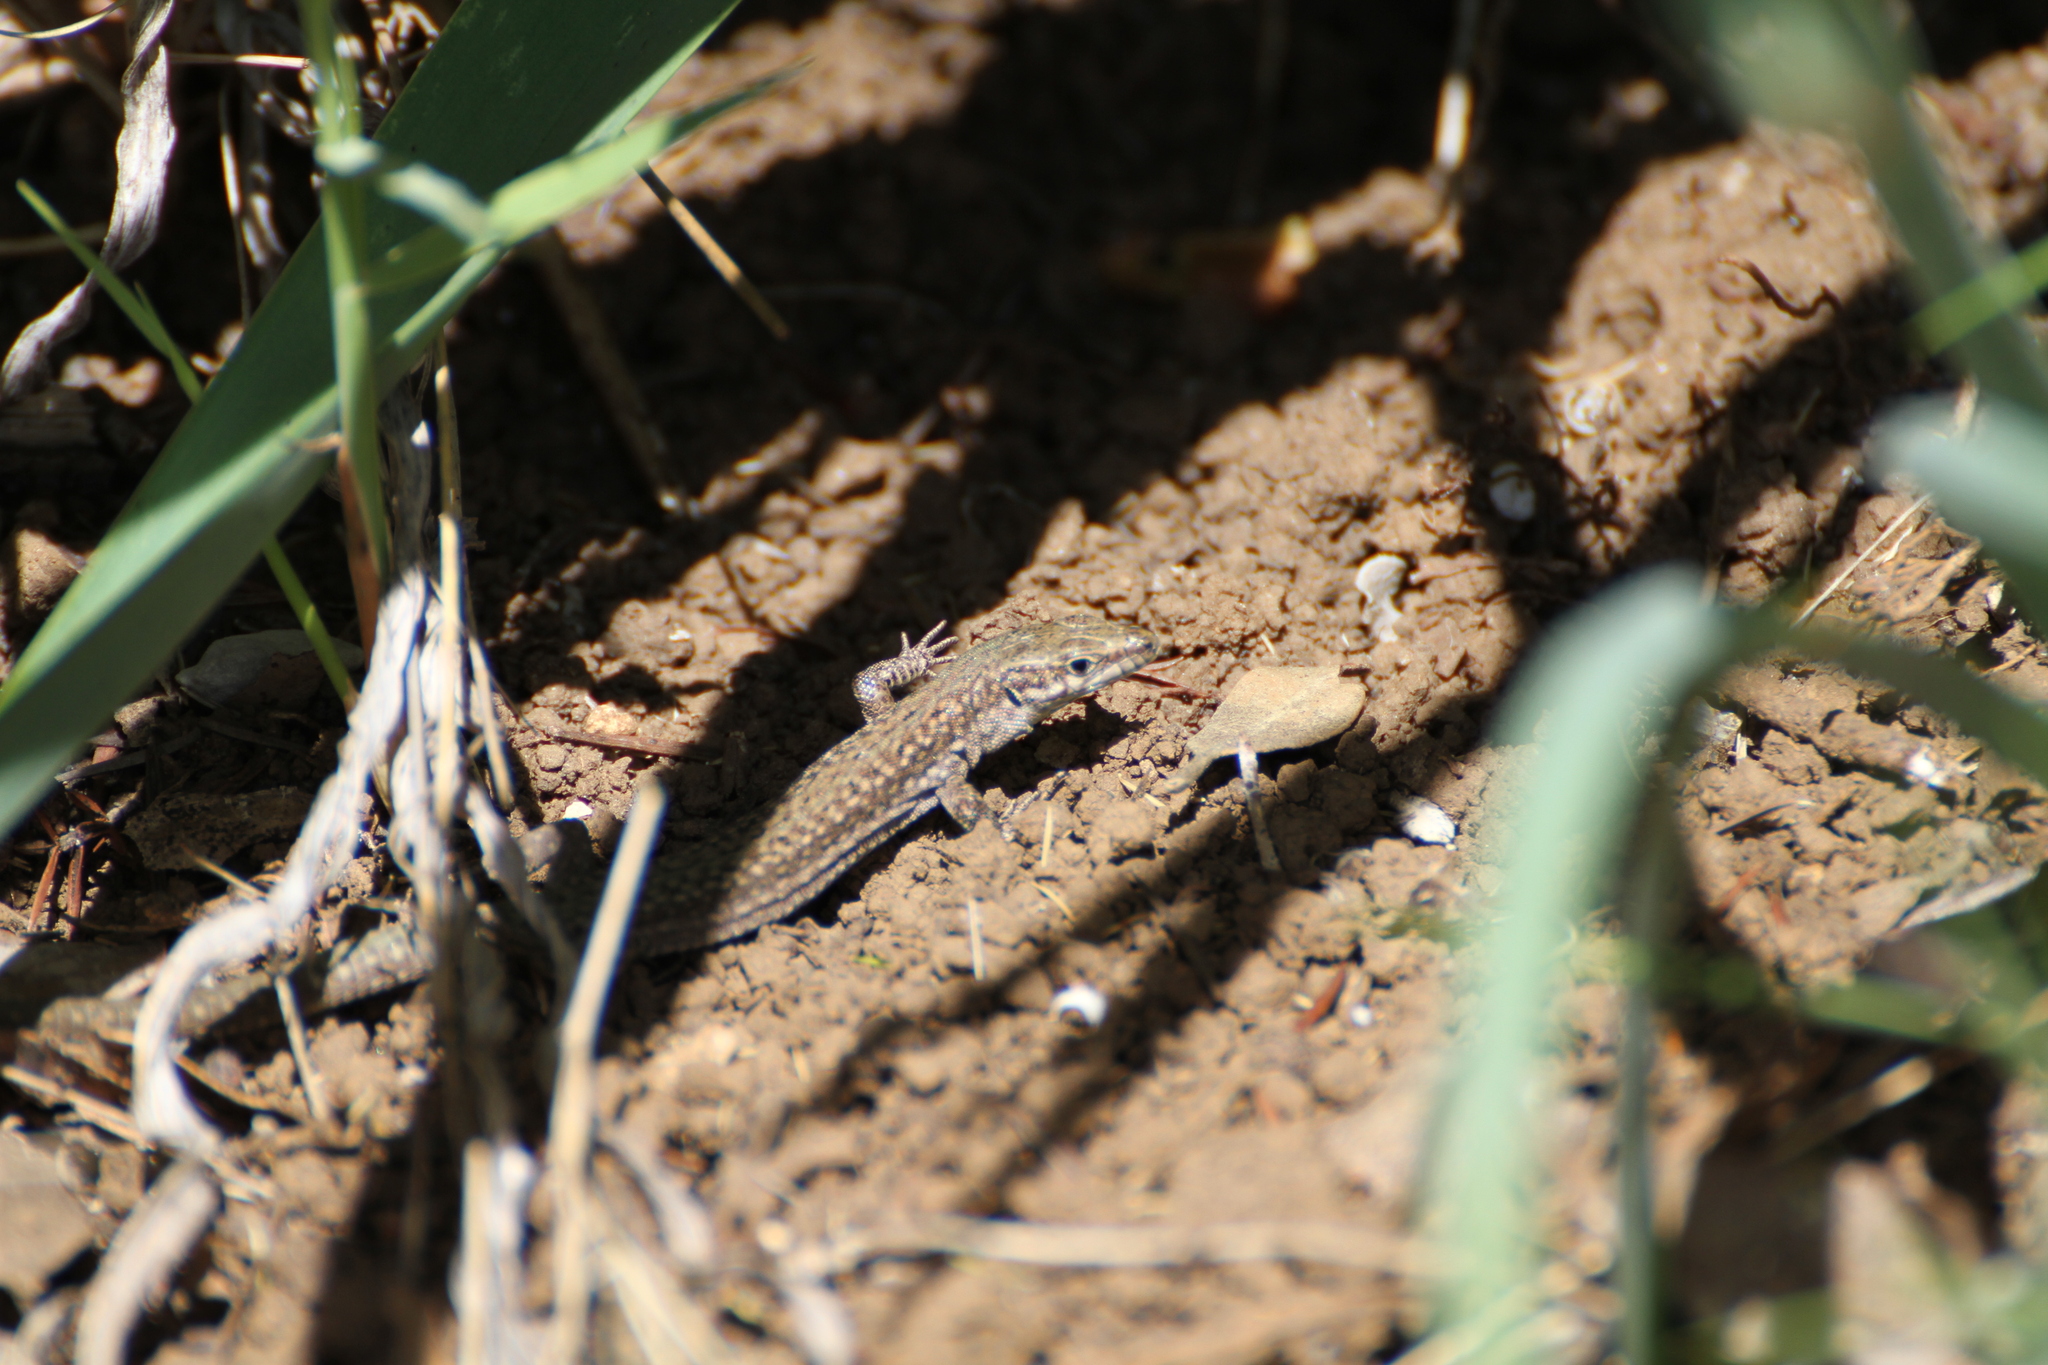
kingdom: Animalia
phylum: Chordata
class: Squamata
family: Lacertidae
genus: Podarcis
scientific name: Podarcis liolepis
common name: Catalonian wall lizard
